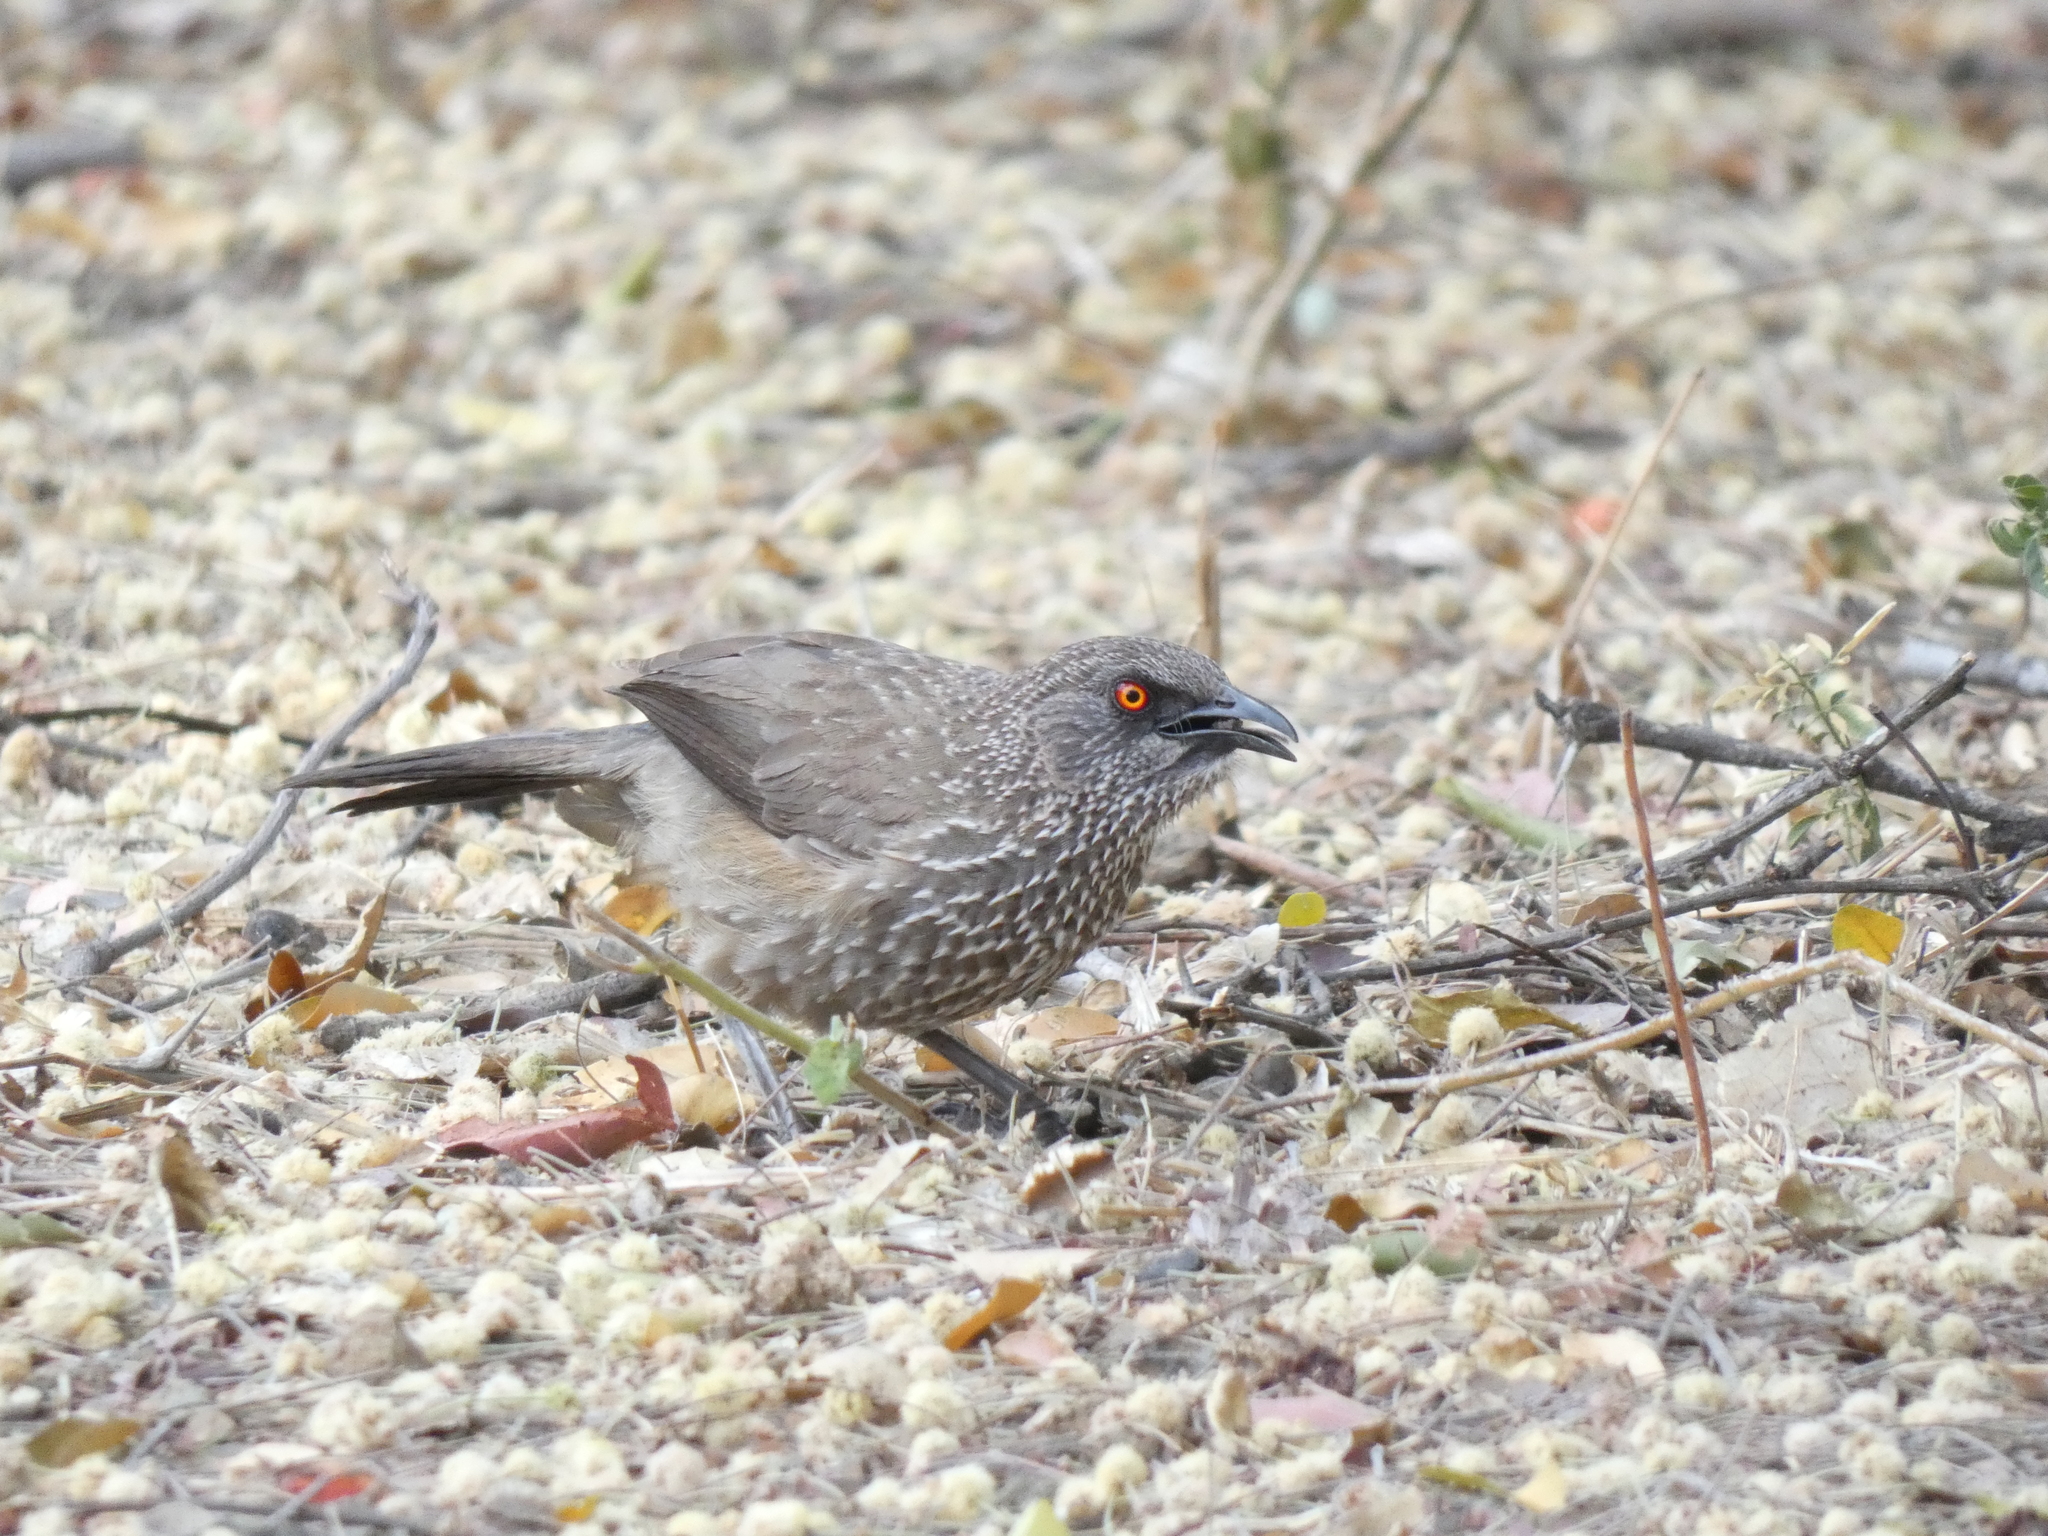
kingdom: Animalia
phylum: Chordata
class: Aves
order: Passeriformes
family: Leiothrichidae
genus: Turdoides
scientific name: Turdoides jardineii
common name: Arrow-marked babbler
